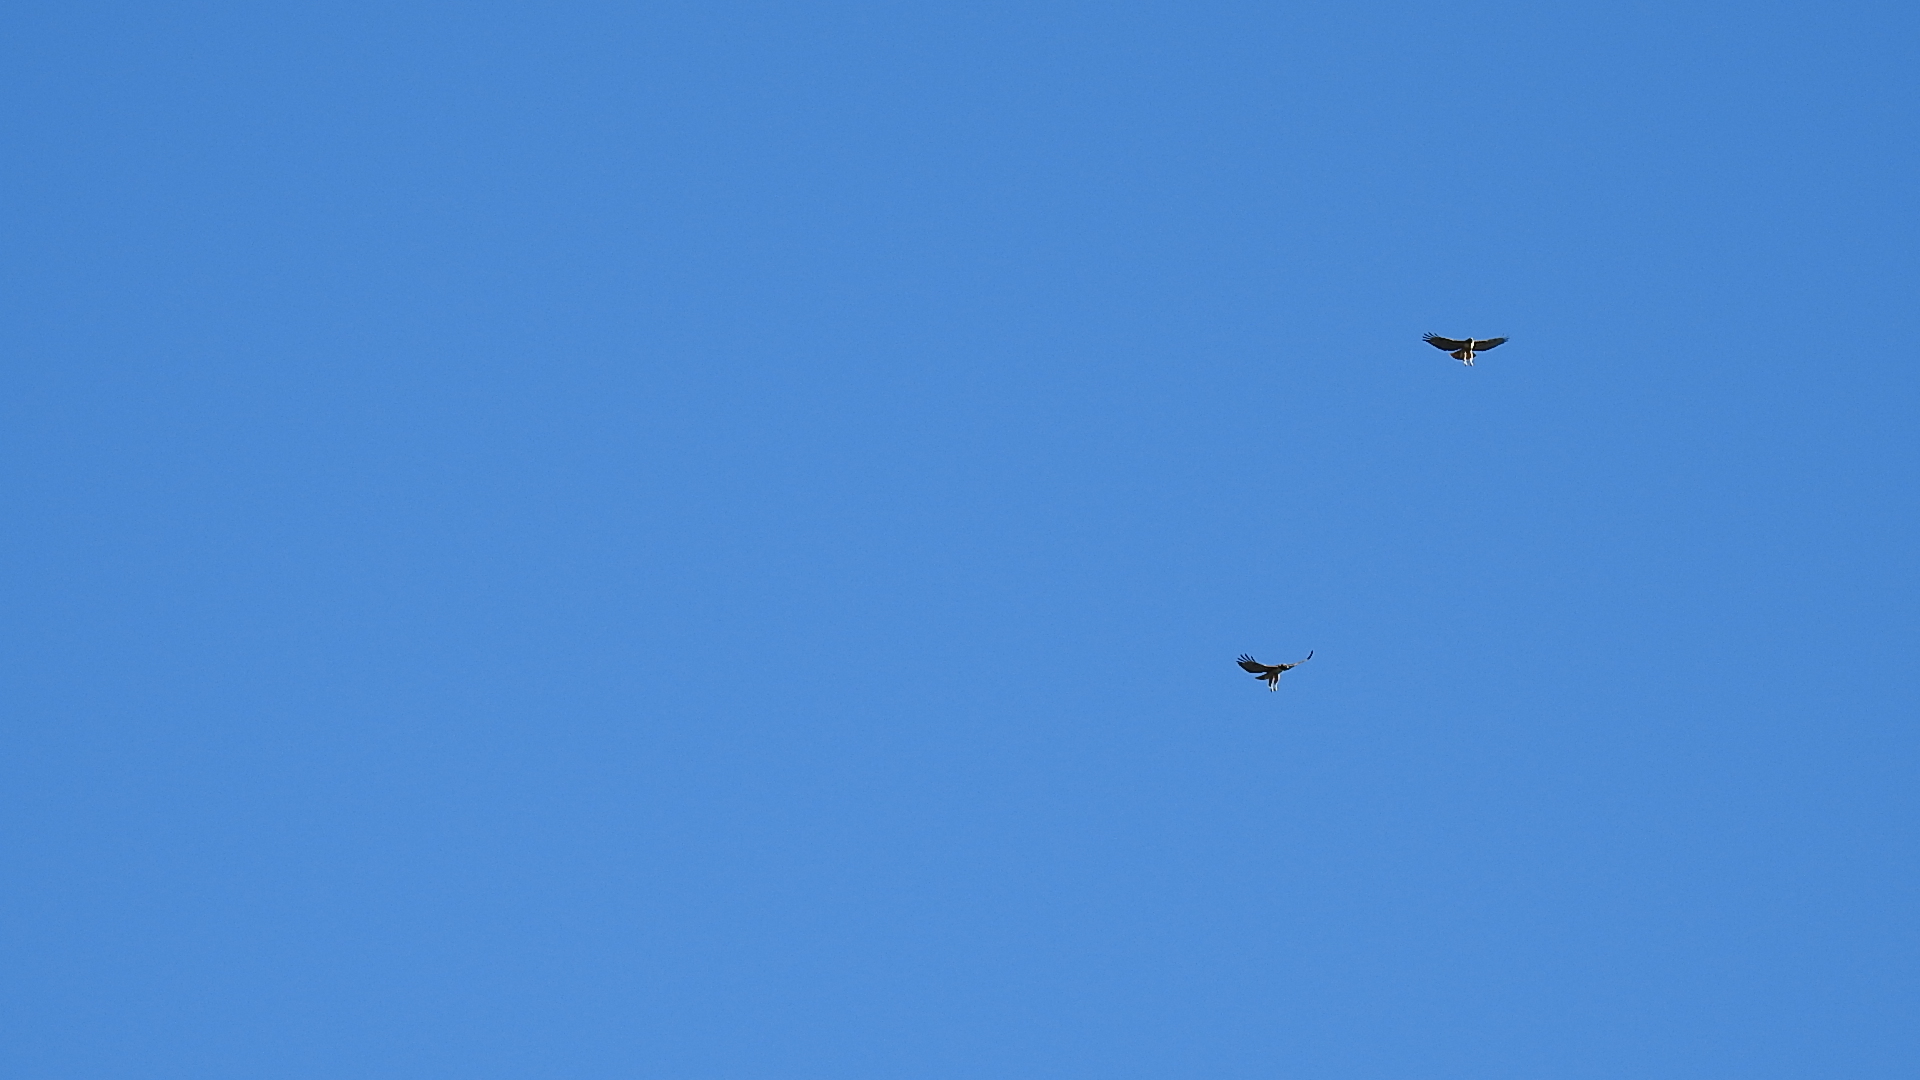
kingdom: Animalia
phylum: Chordata
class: Aves
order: Accipitriformes
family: Accipitridae
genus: Buteo
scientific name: Buteo jamaicensis
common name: Red-tailed hawk
